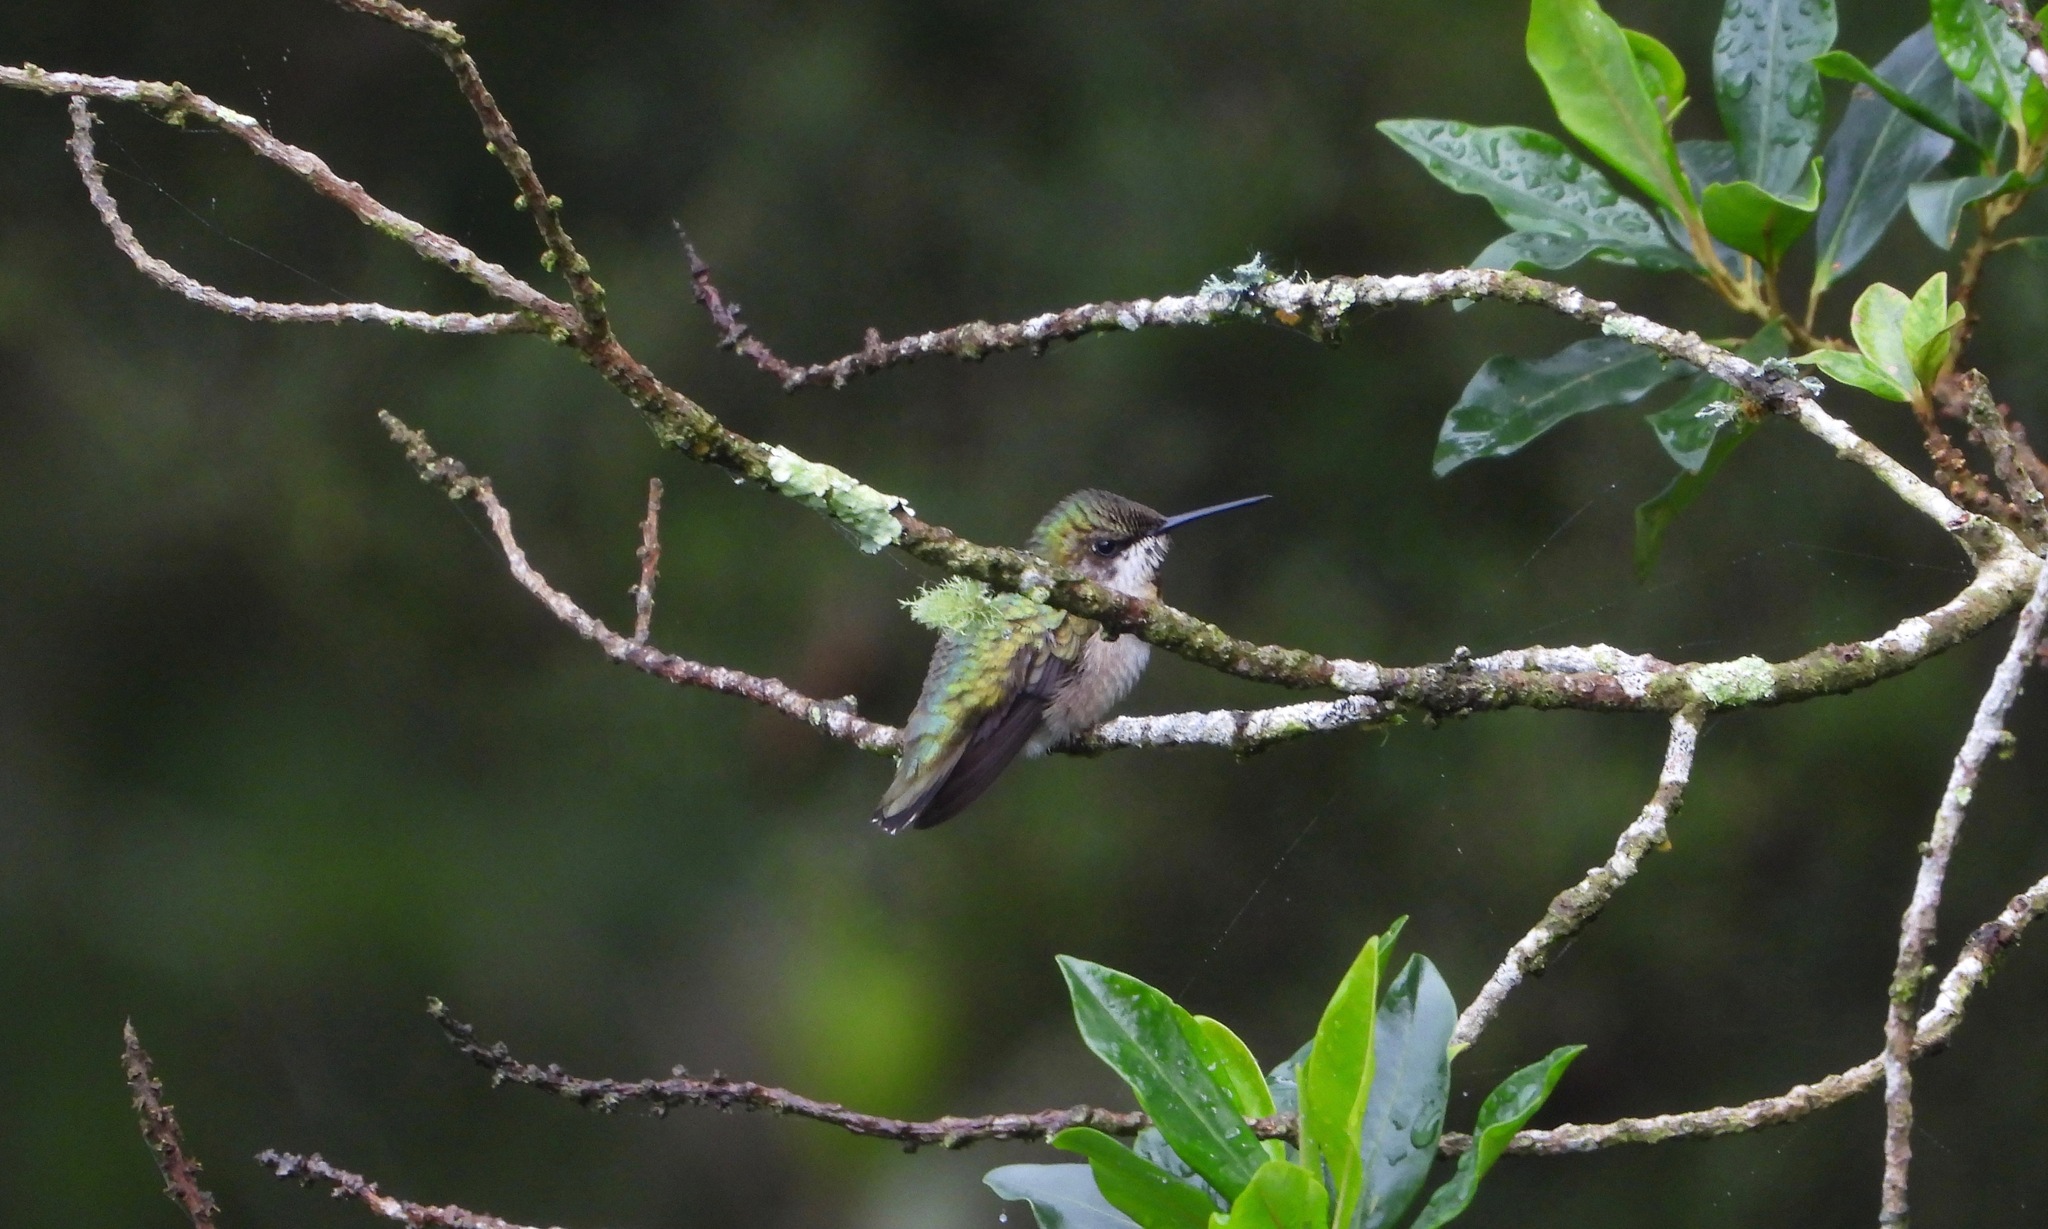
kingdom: Animalia
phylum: Chordata
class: Aves
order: Apodiformes
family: Trochilidae
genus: Archilochus
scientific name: Archilochus colubris
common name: Ruby-throated hummingbird
